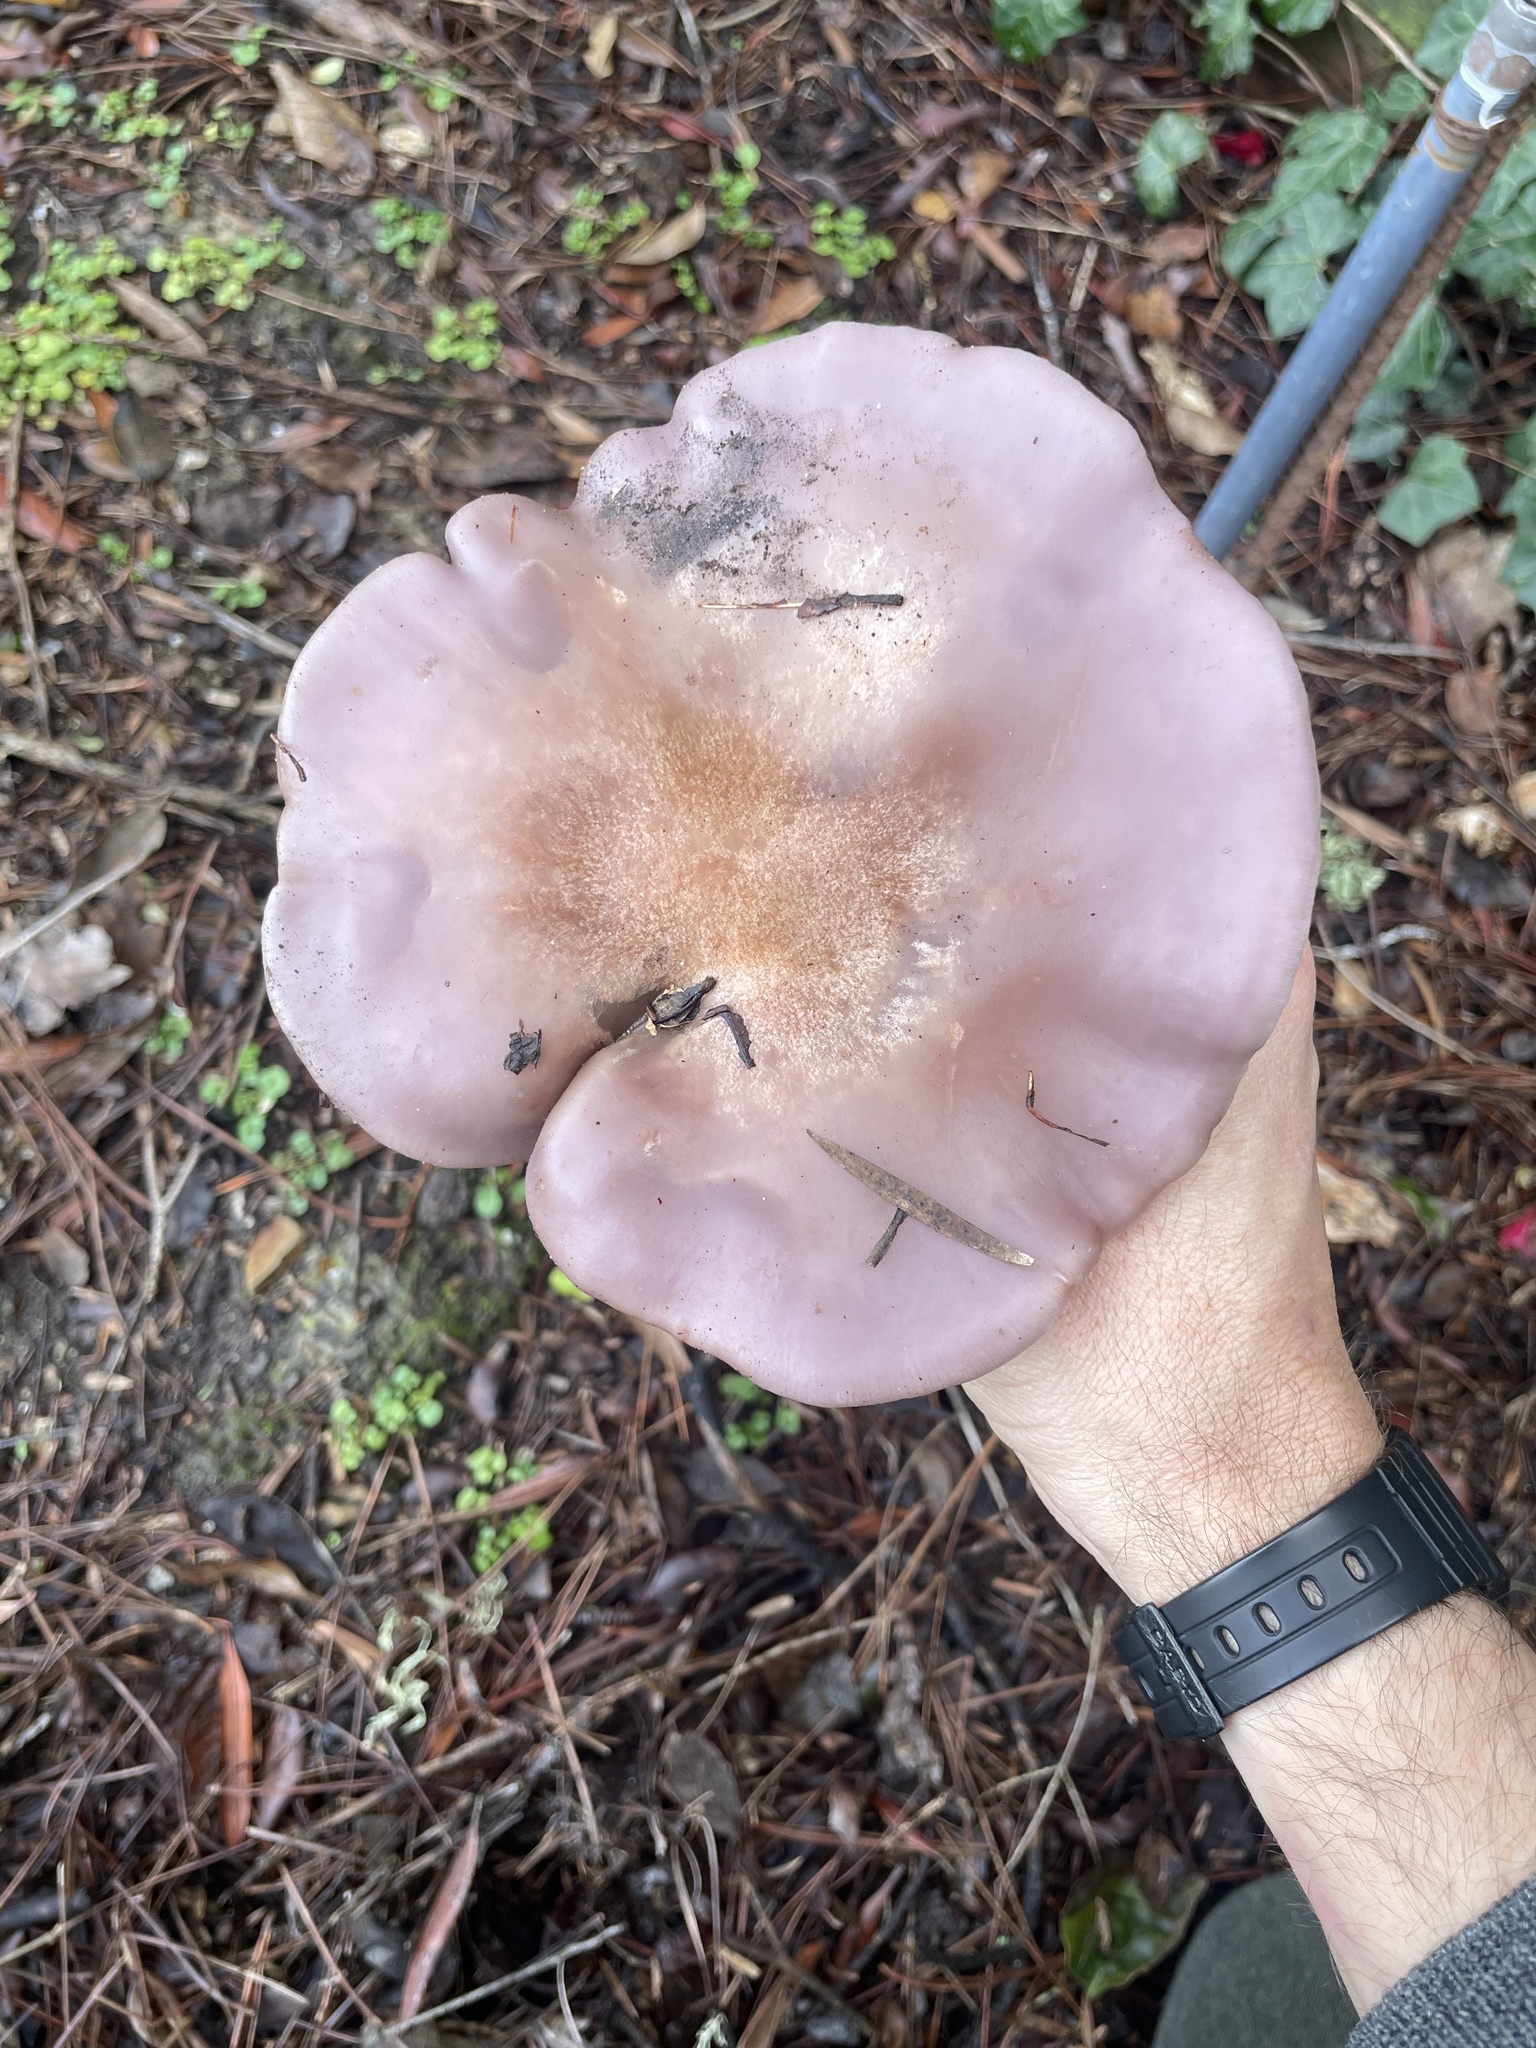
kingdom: Fungi
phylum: Basidiomycota
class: Agaricomycetes
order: Agaricales
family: Tricholomataceae
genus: Collybia
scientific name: Collybia
